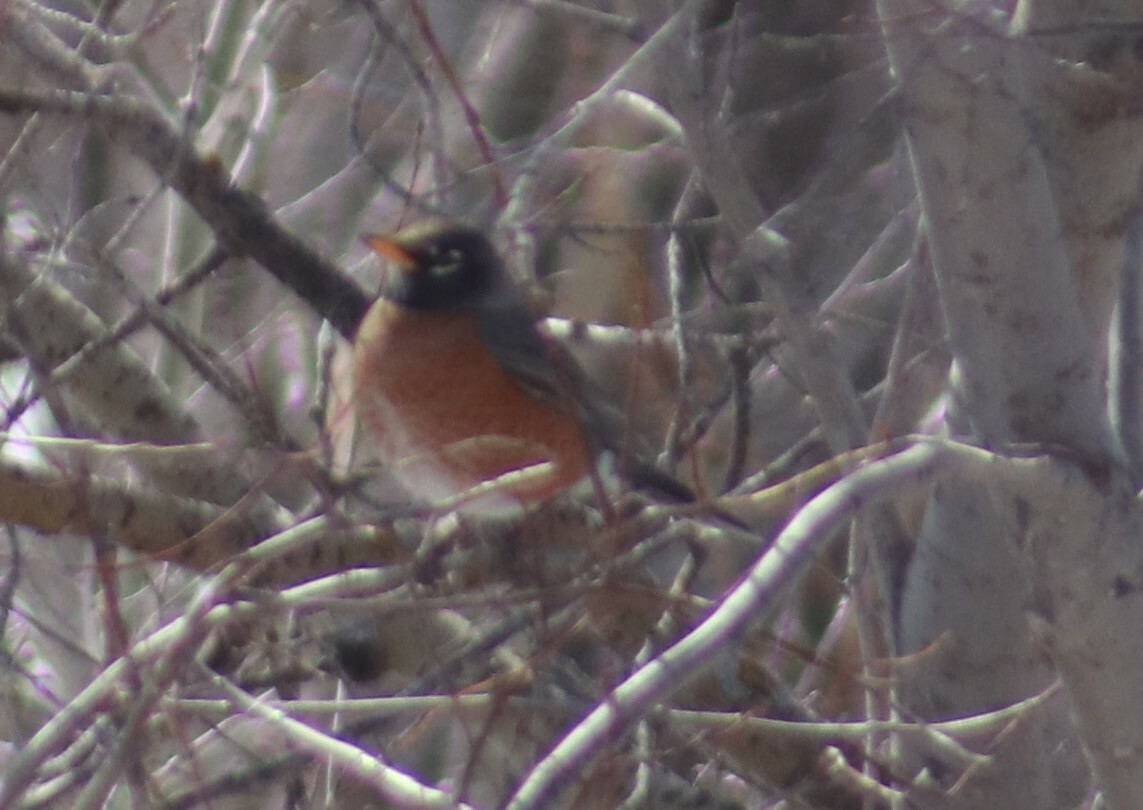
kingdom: Animalia
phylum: Chordata
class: Aves
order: Passeriformes
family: Turdidae
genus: Turdus
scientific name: Turdus migratorius
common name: American robin
